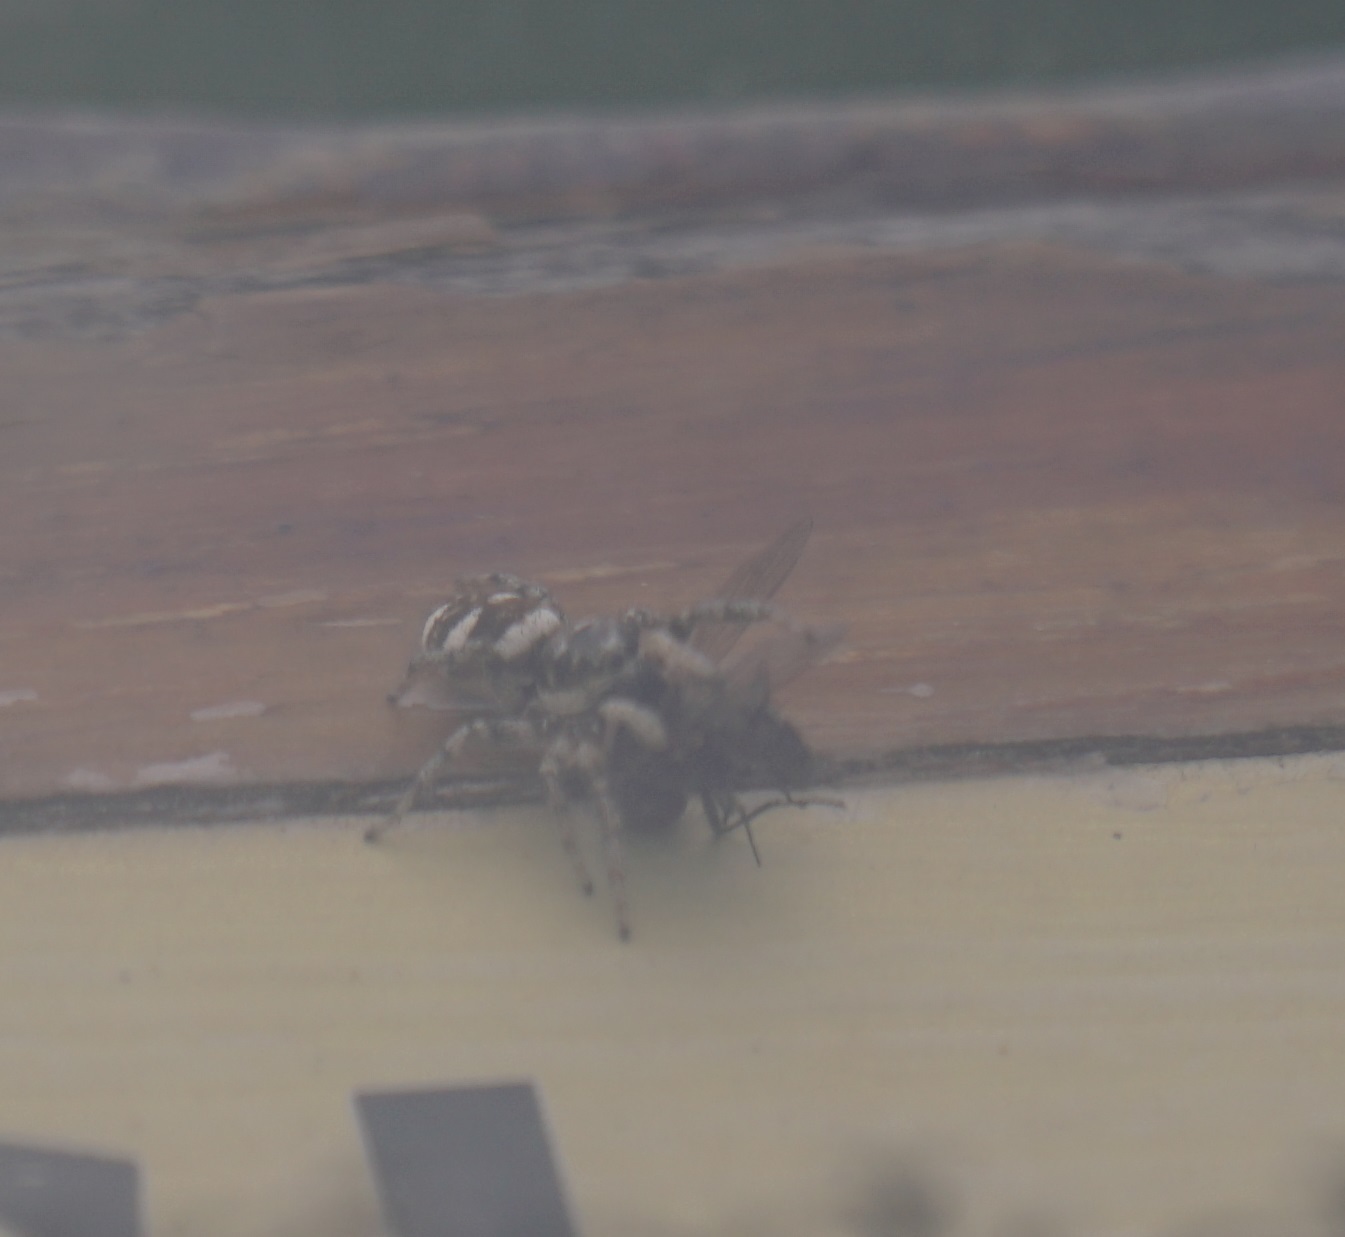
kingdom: Animalia
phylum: Arthropoda
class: Arachnida
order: Araneae
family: Salticidae
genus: Salticus
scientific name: Salticus scenicus
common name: Zebra jumper
